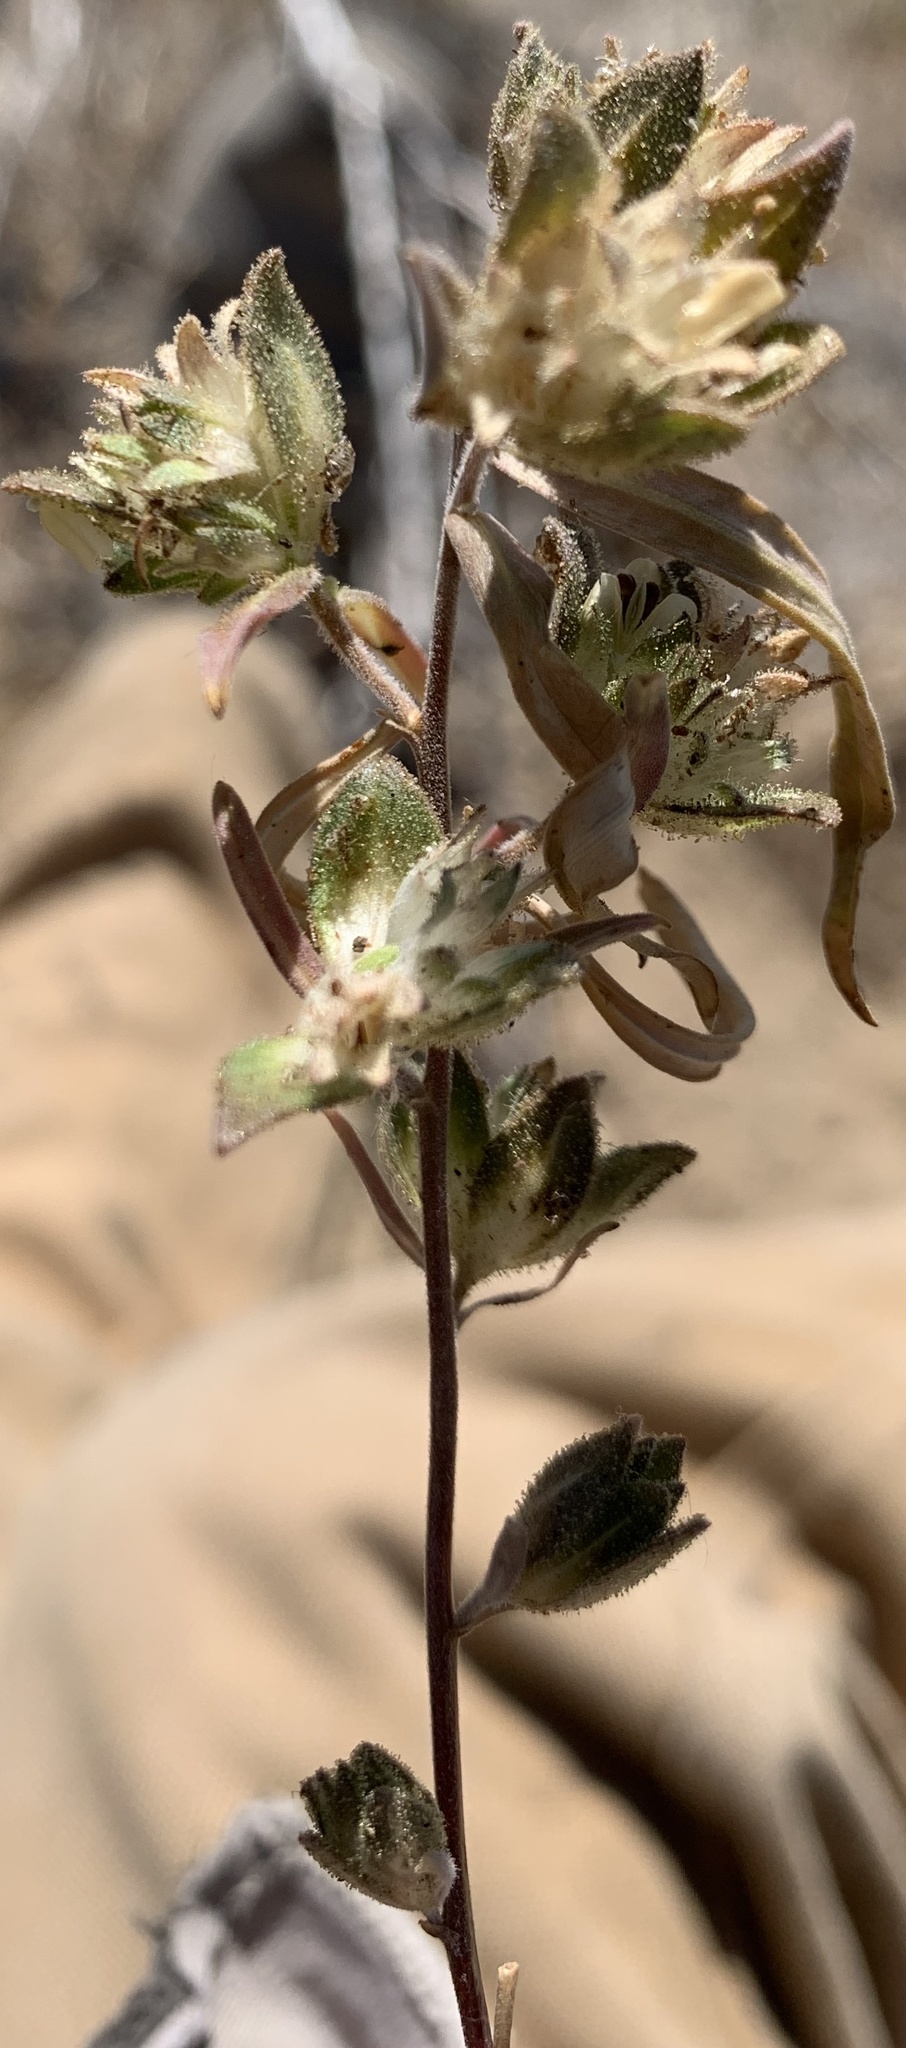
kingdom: Plantae
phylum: Tracheophyta
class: Magnoliopsida
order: Ericales
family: Polemoniaceae
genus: Collomia
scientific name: Collomia grandiflora
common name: California strawflower
